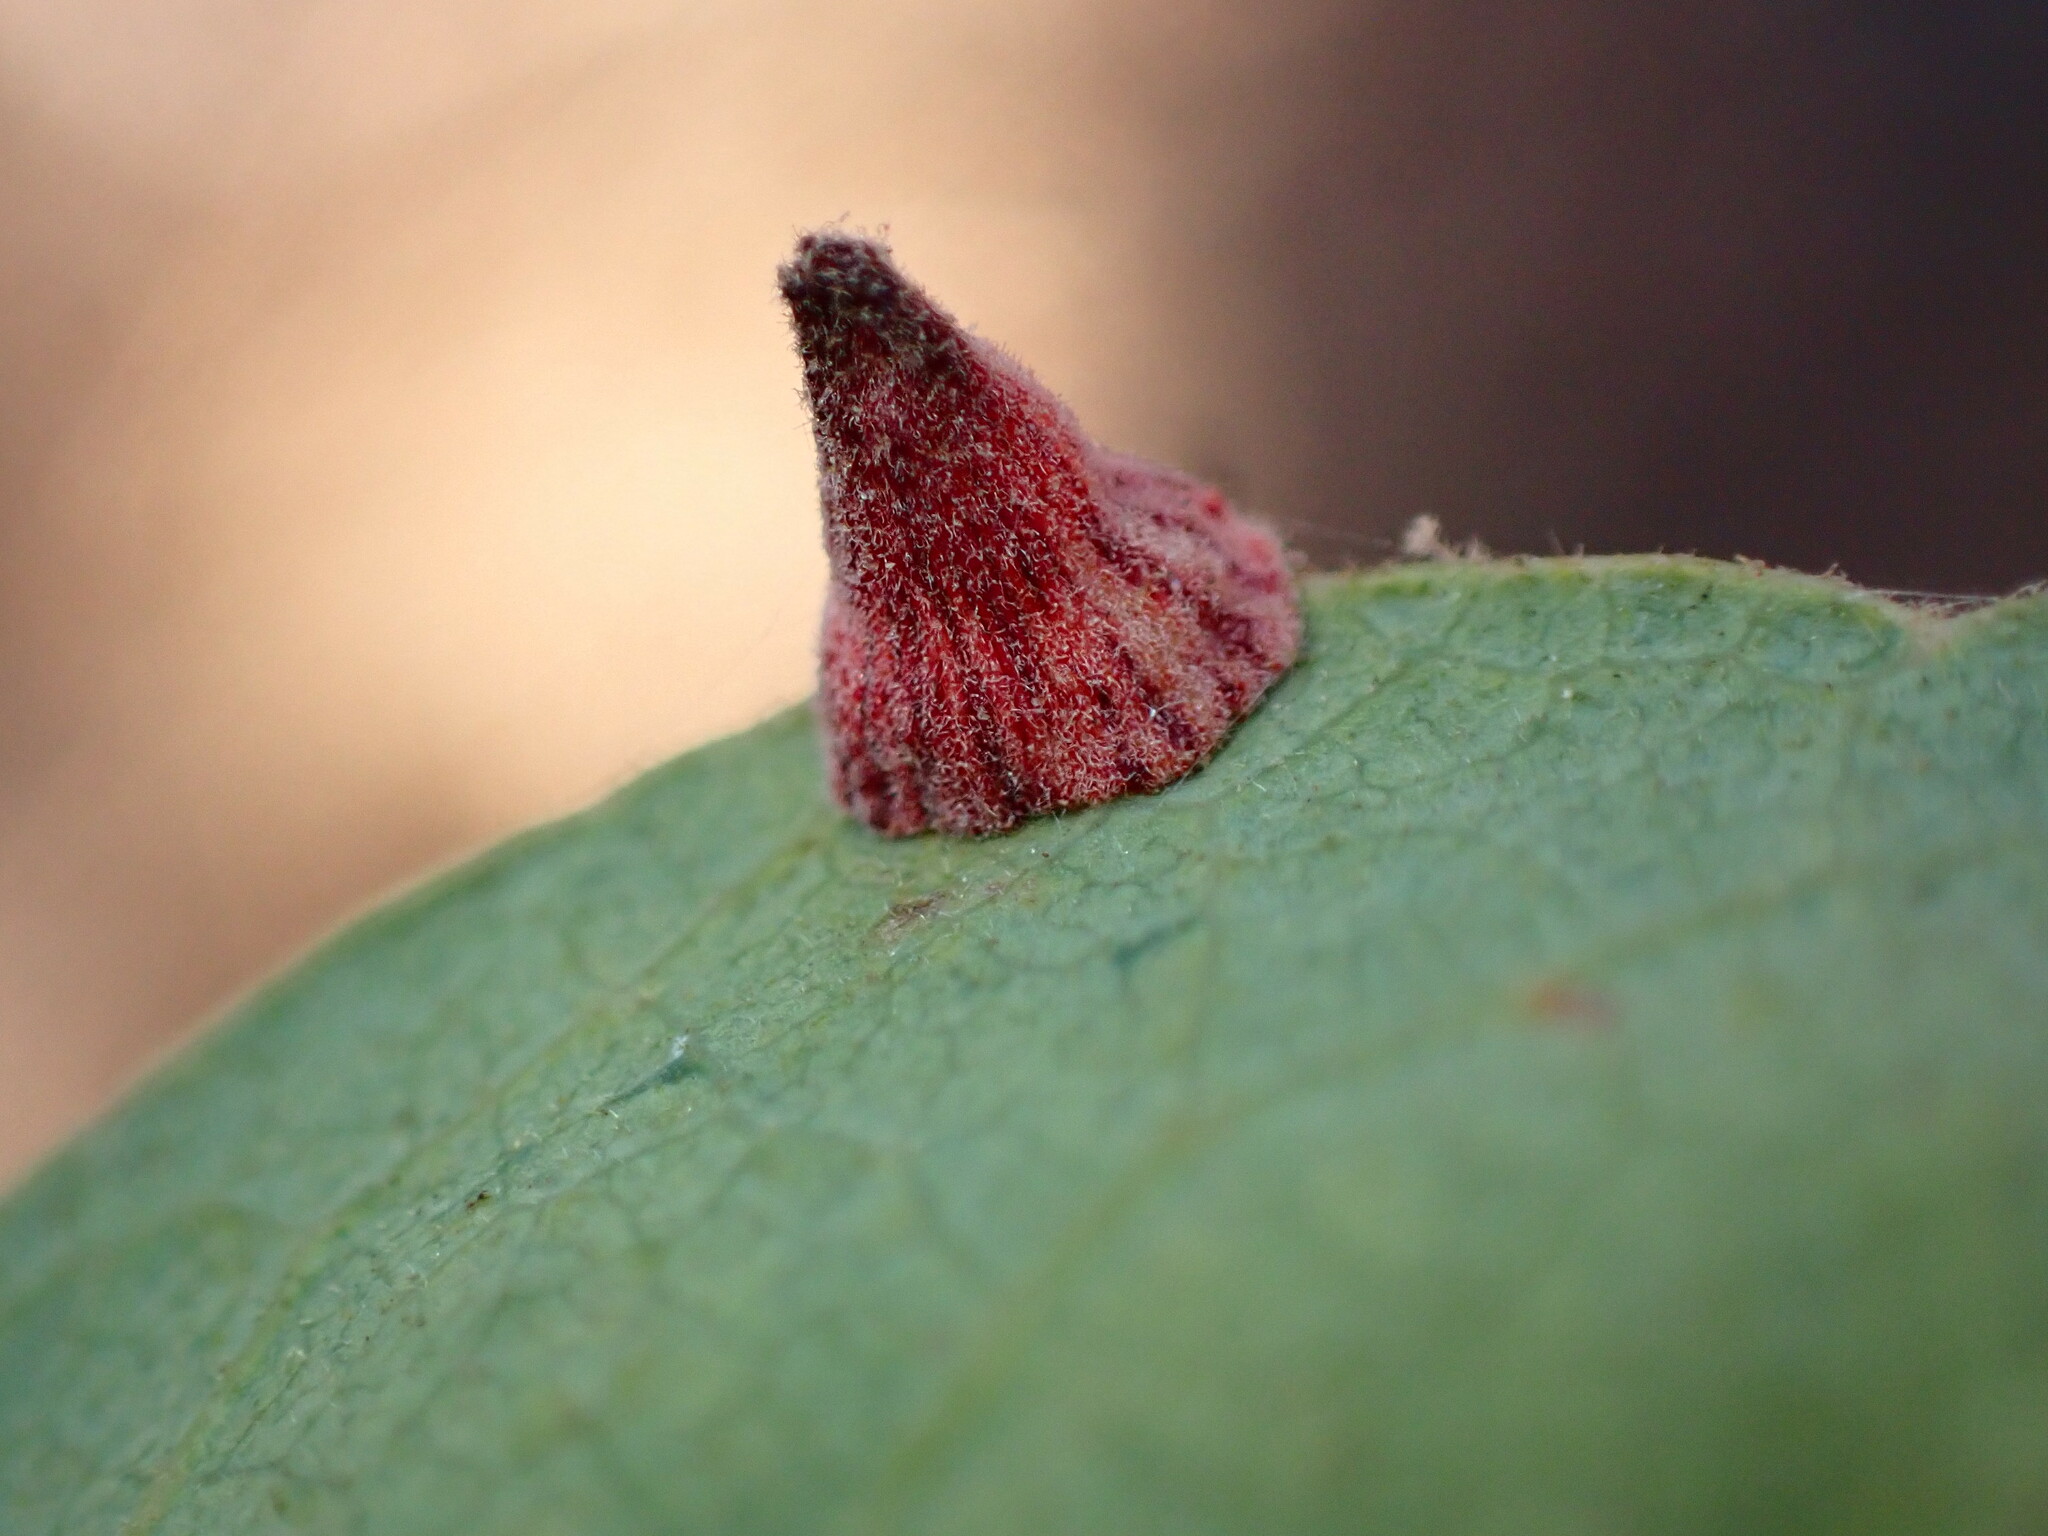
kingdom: Animalia
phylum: Arthropoda
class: Insecta
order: Hymenoptera
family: Cynipidae
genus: Andricus
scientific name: Andricus
